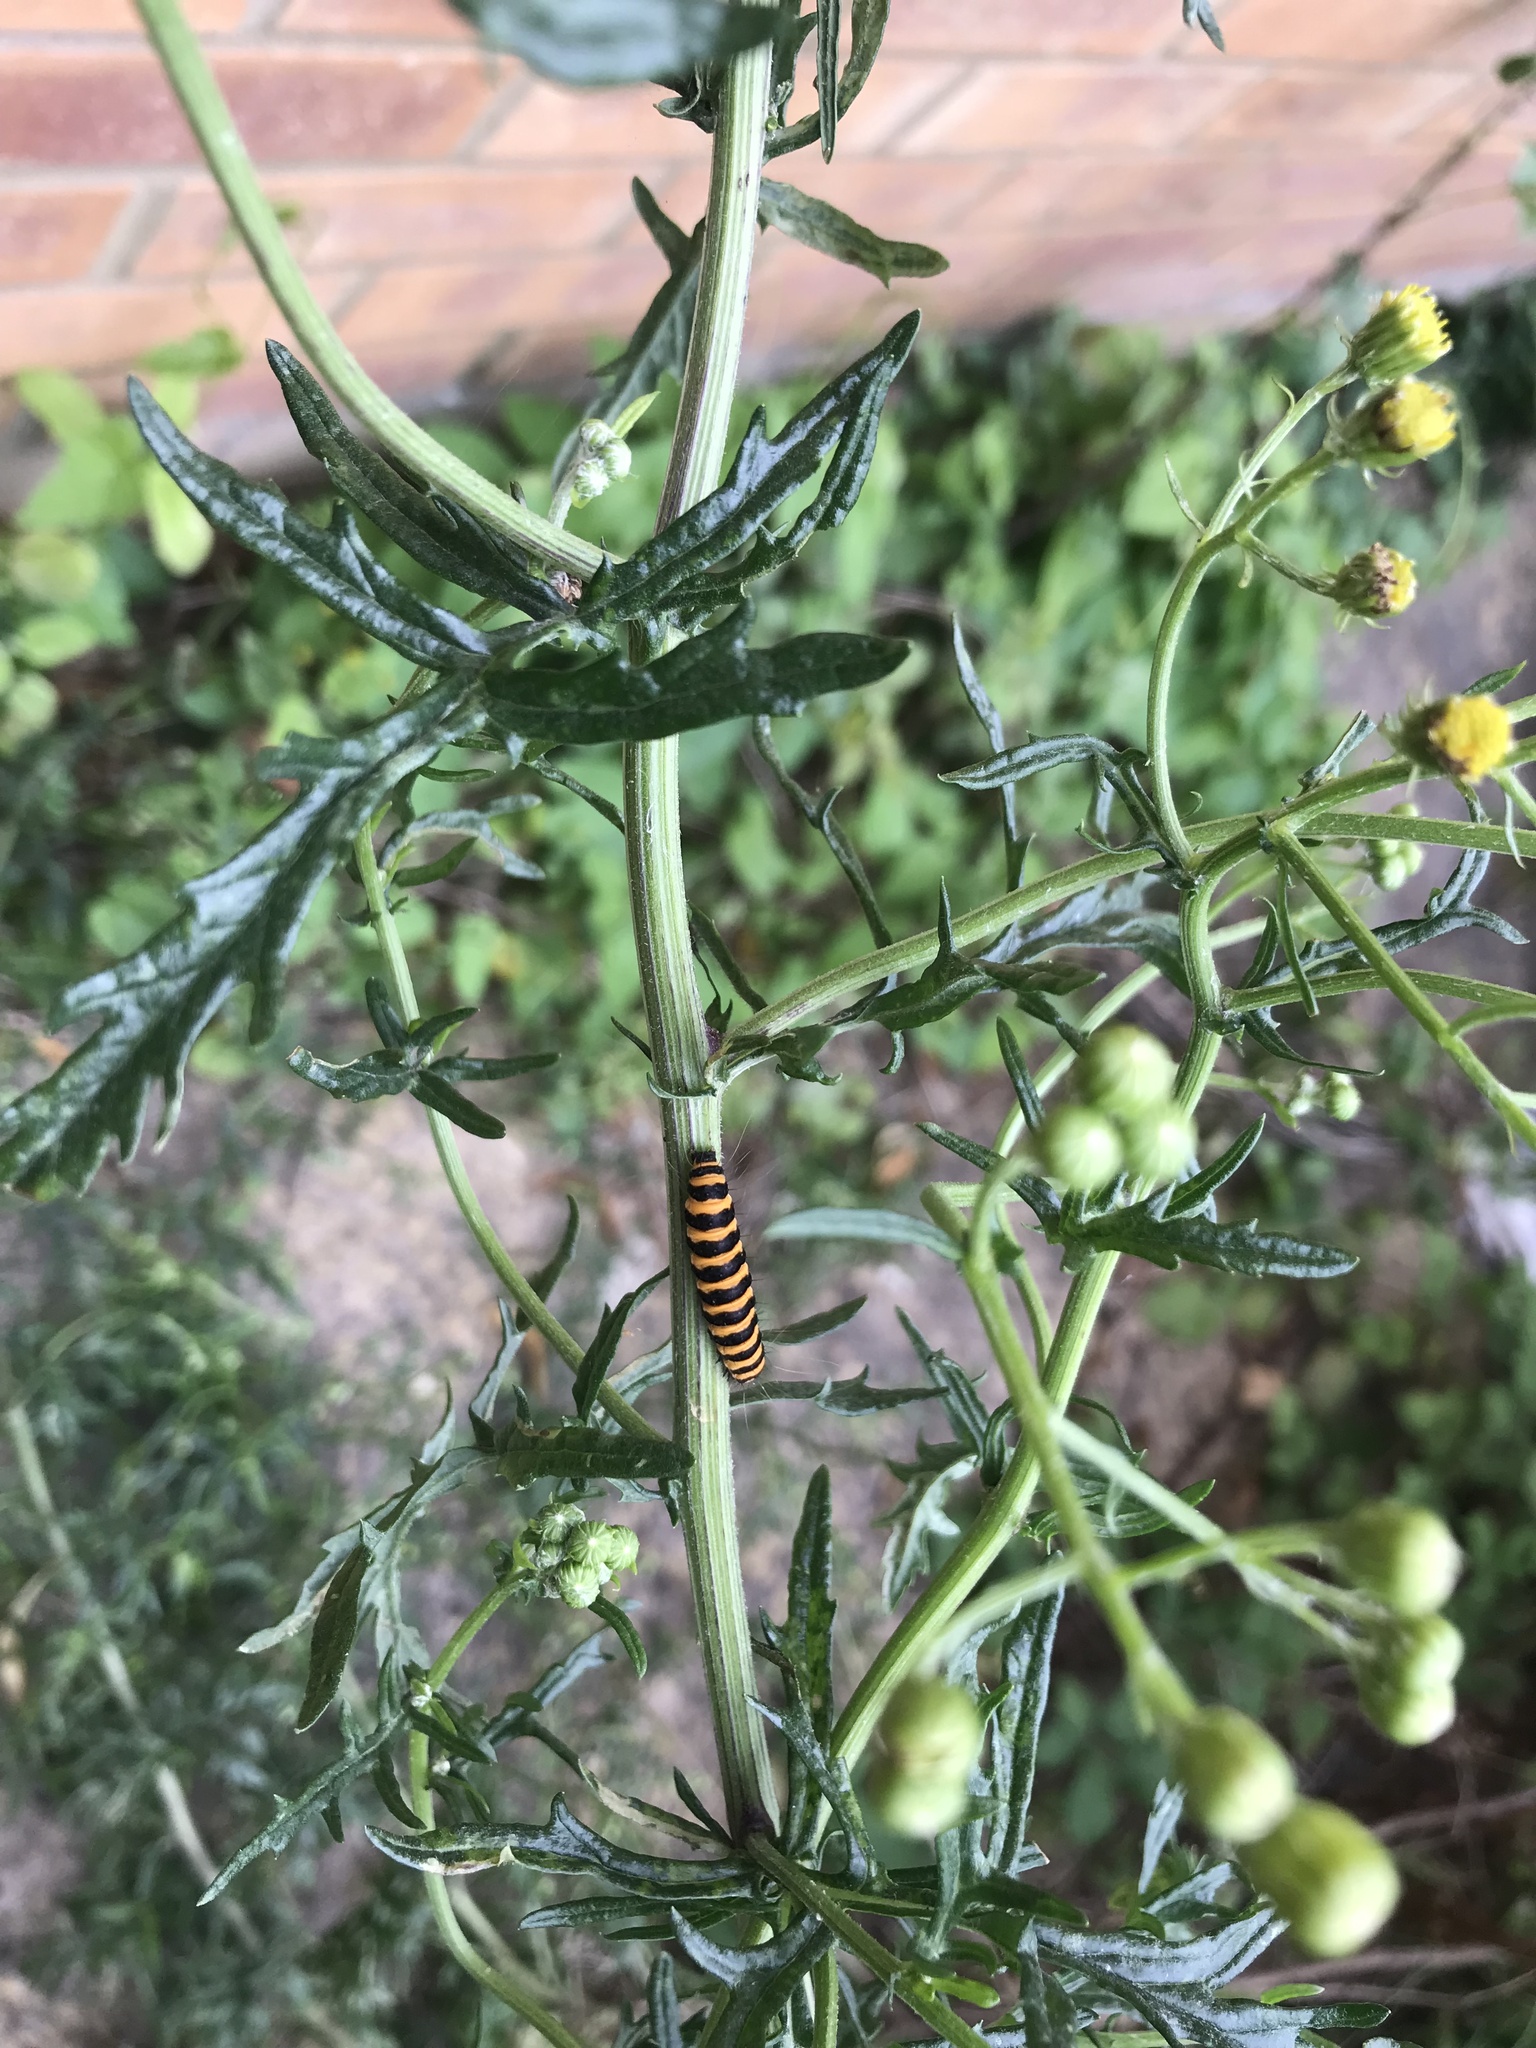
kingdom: Animalia
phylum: Arthropoda
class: Insecta
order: Lepidoptera
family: Erebidae
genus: Tyria
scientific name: Tyria jacobaeae
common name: Cinnabar
